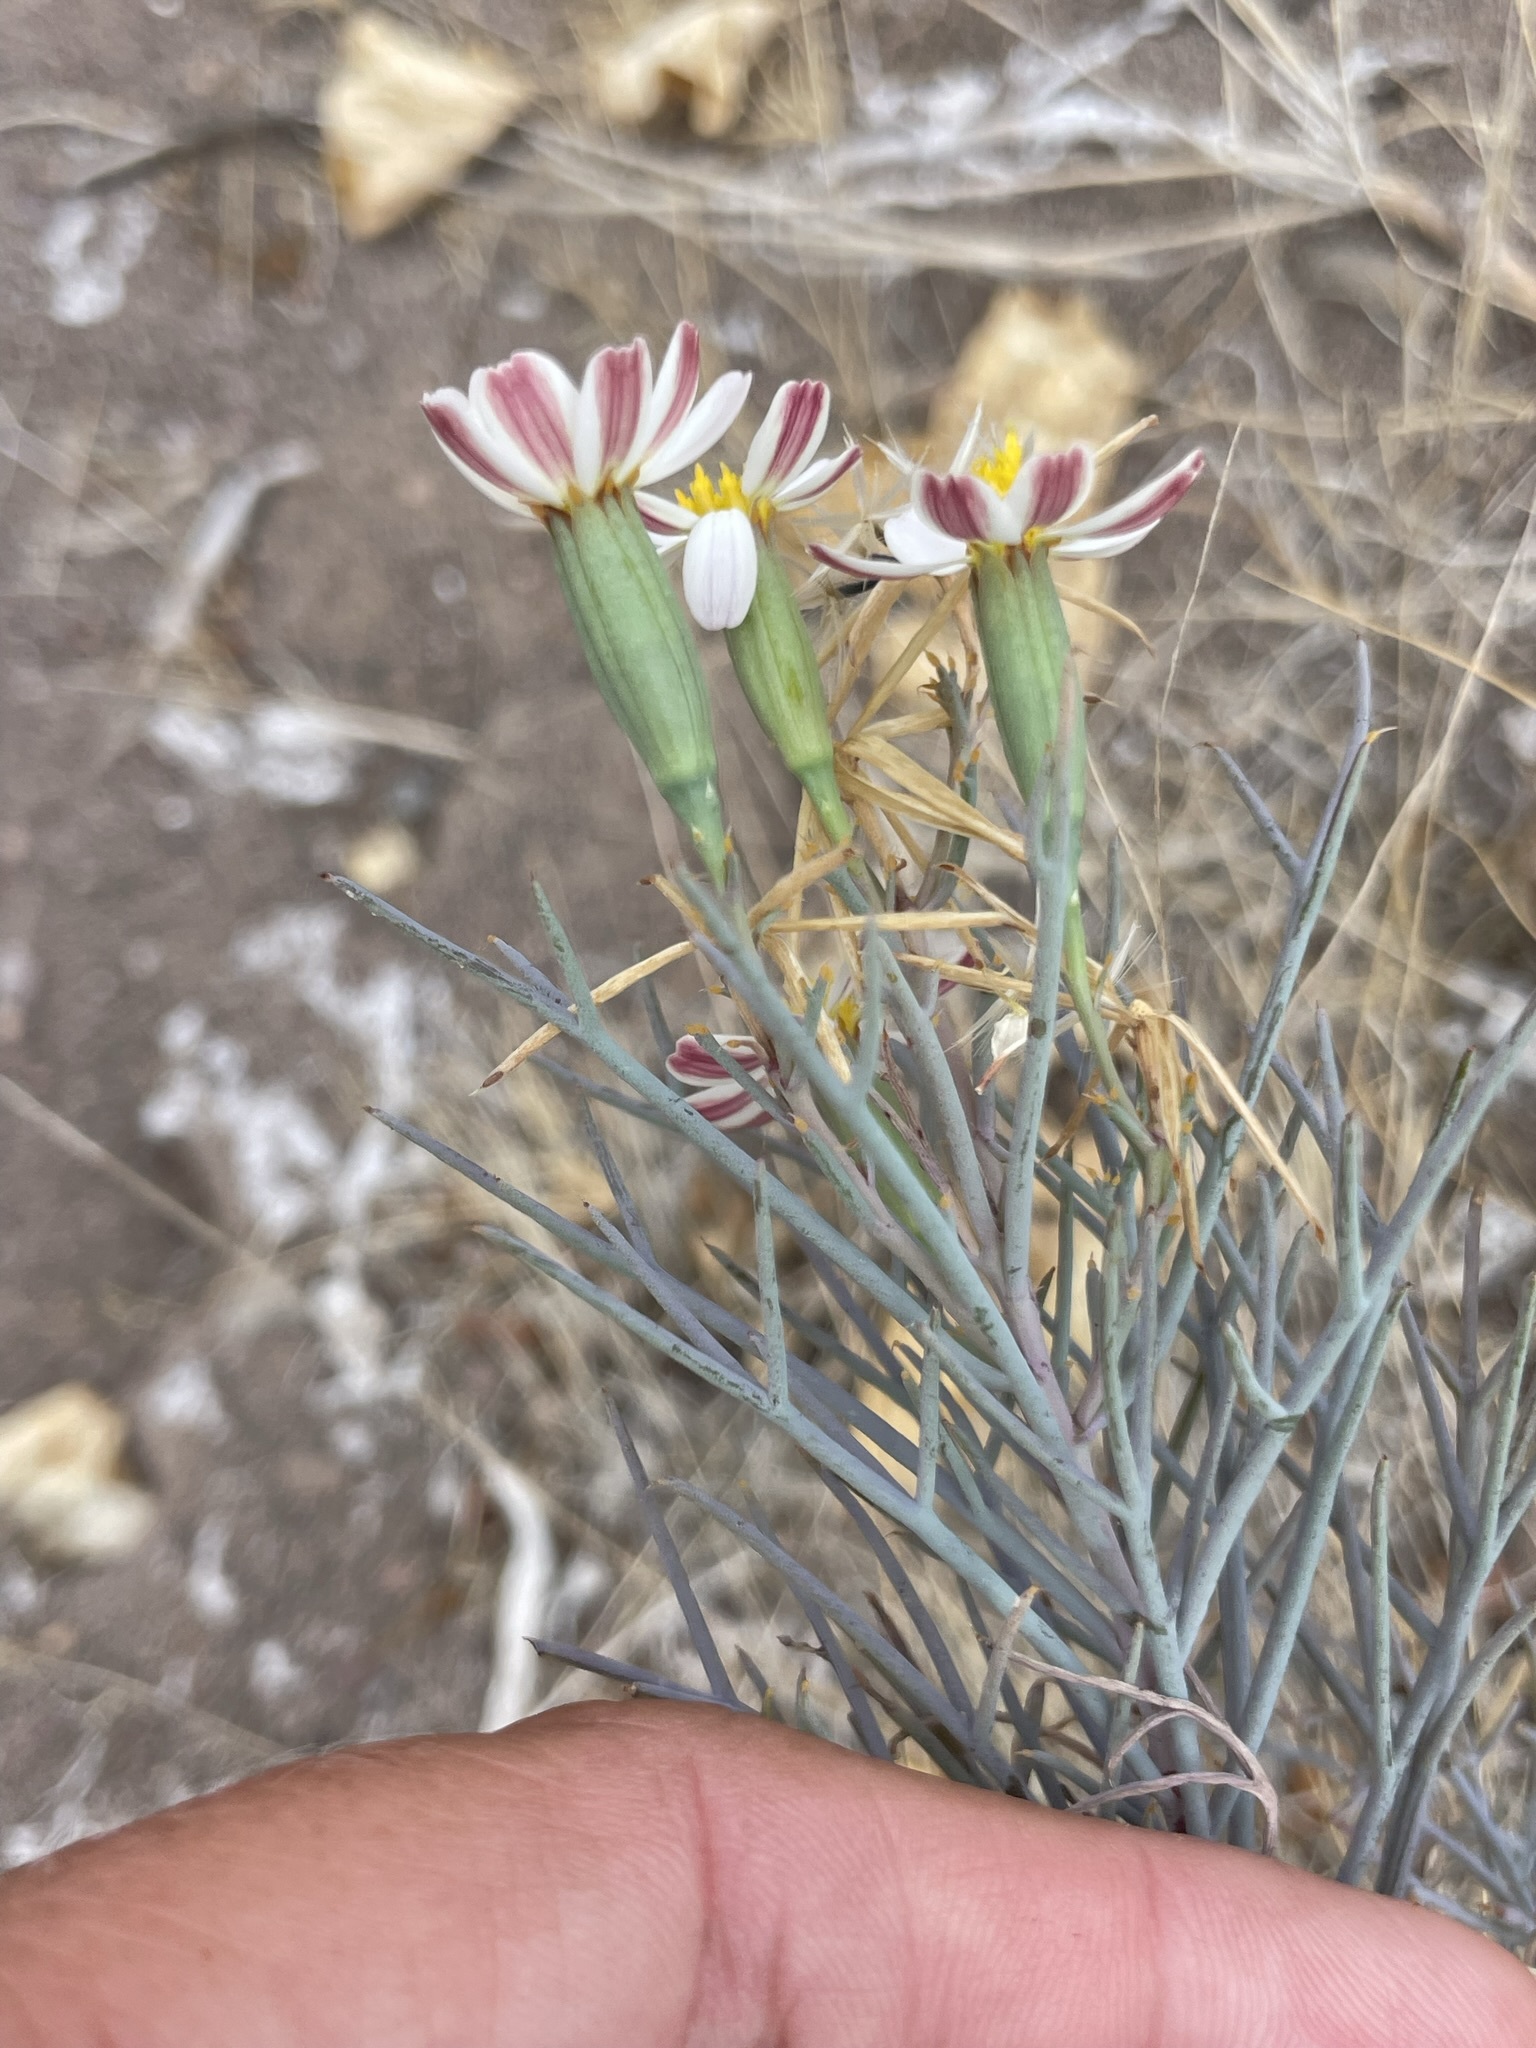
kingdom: Plantae
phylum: Tracheophyta
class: Magnoliopsida
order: Asterales
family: Asteraceae
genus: Nicolletia
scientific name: Nicolletia trifida
